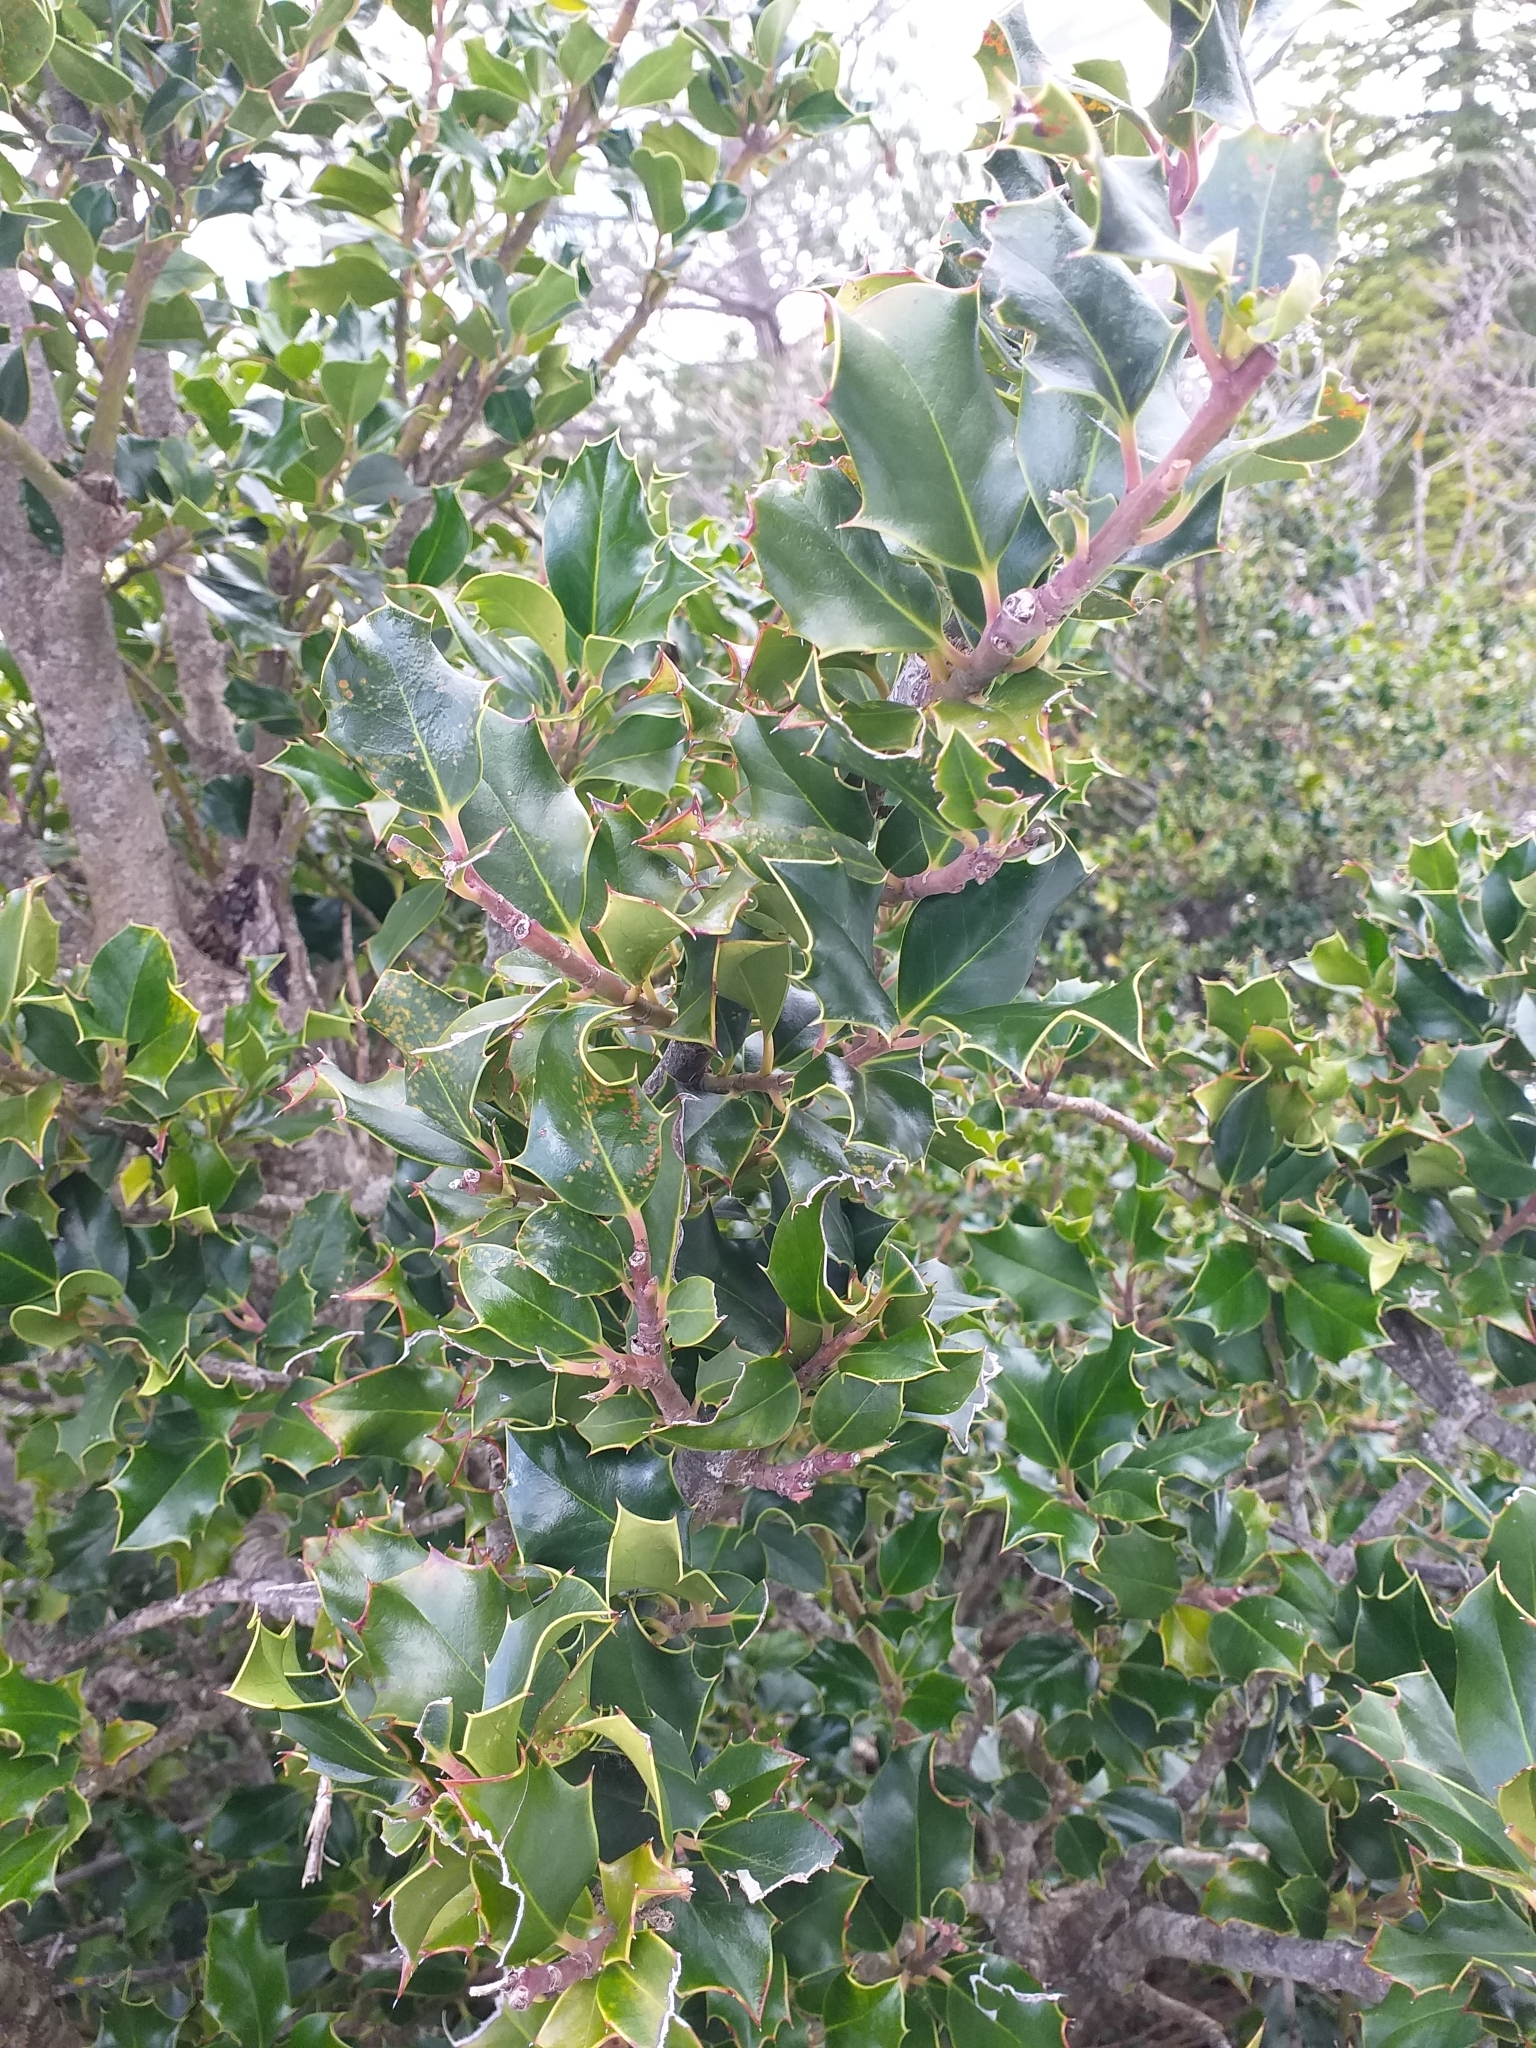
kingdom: Plantae
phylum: Tracheophyta
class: Magnoliopsida
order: Aquifoliales
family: Aquifoliaceae
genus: Ilex
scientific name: Ilex aquifolium
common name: English holly
